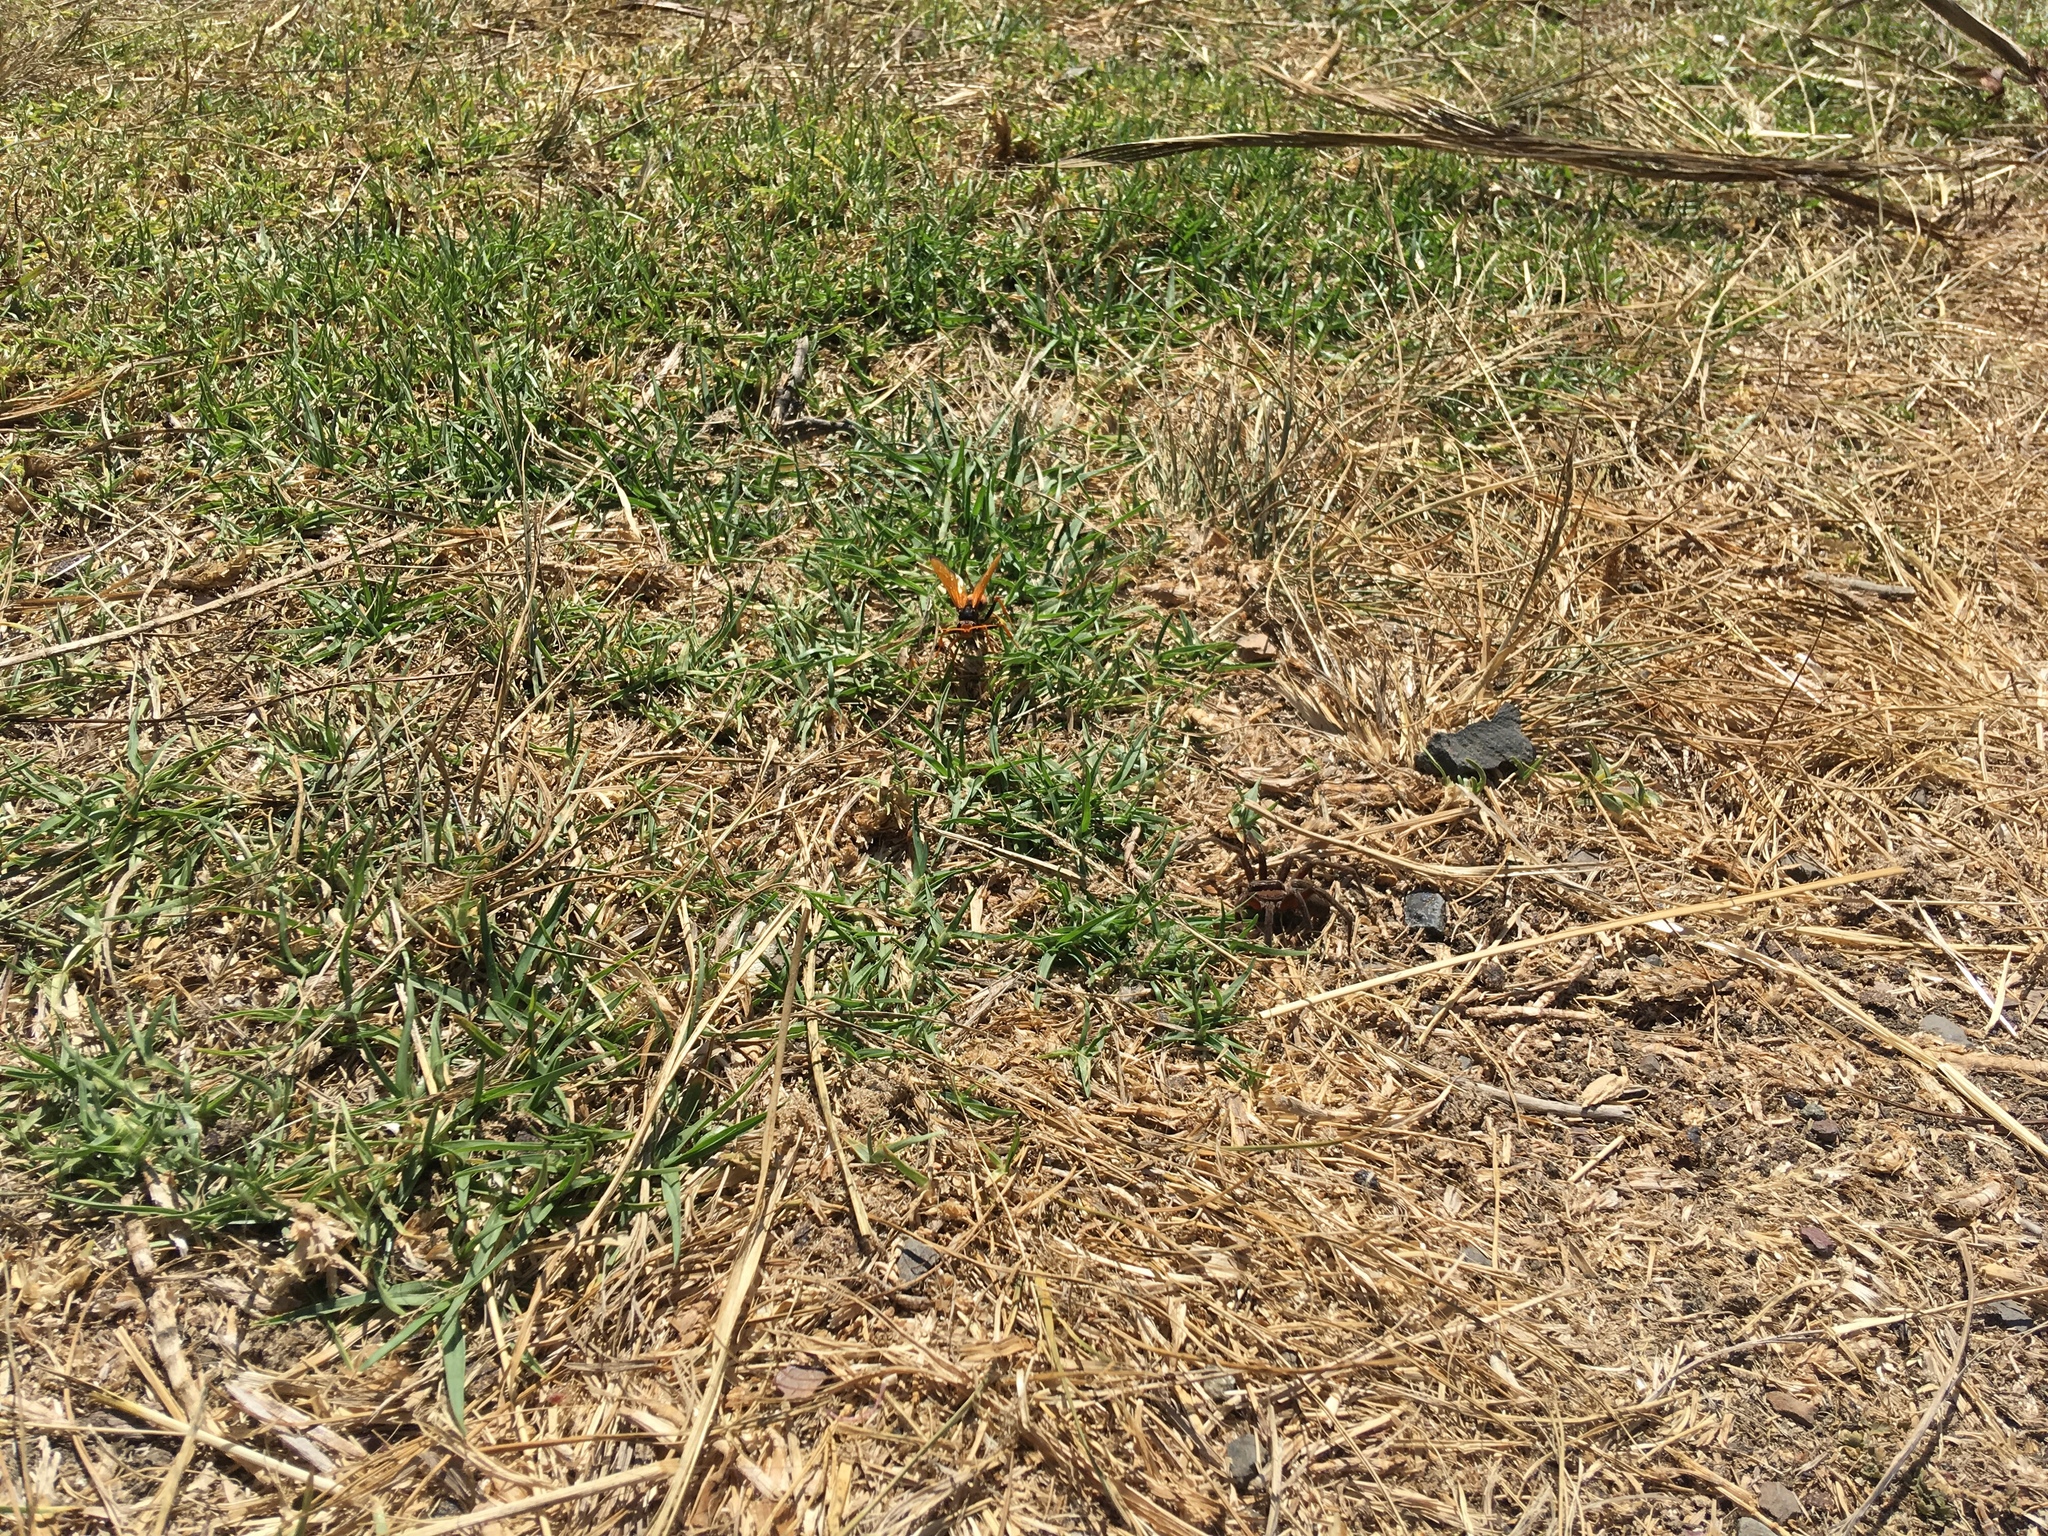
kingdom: Animalia
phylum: Arthropoda
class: Arachnida
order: Araneae
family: Pisauridae
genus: Dolomedes
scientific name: Dolomedes minor
